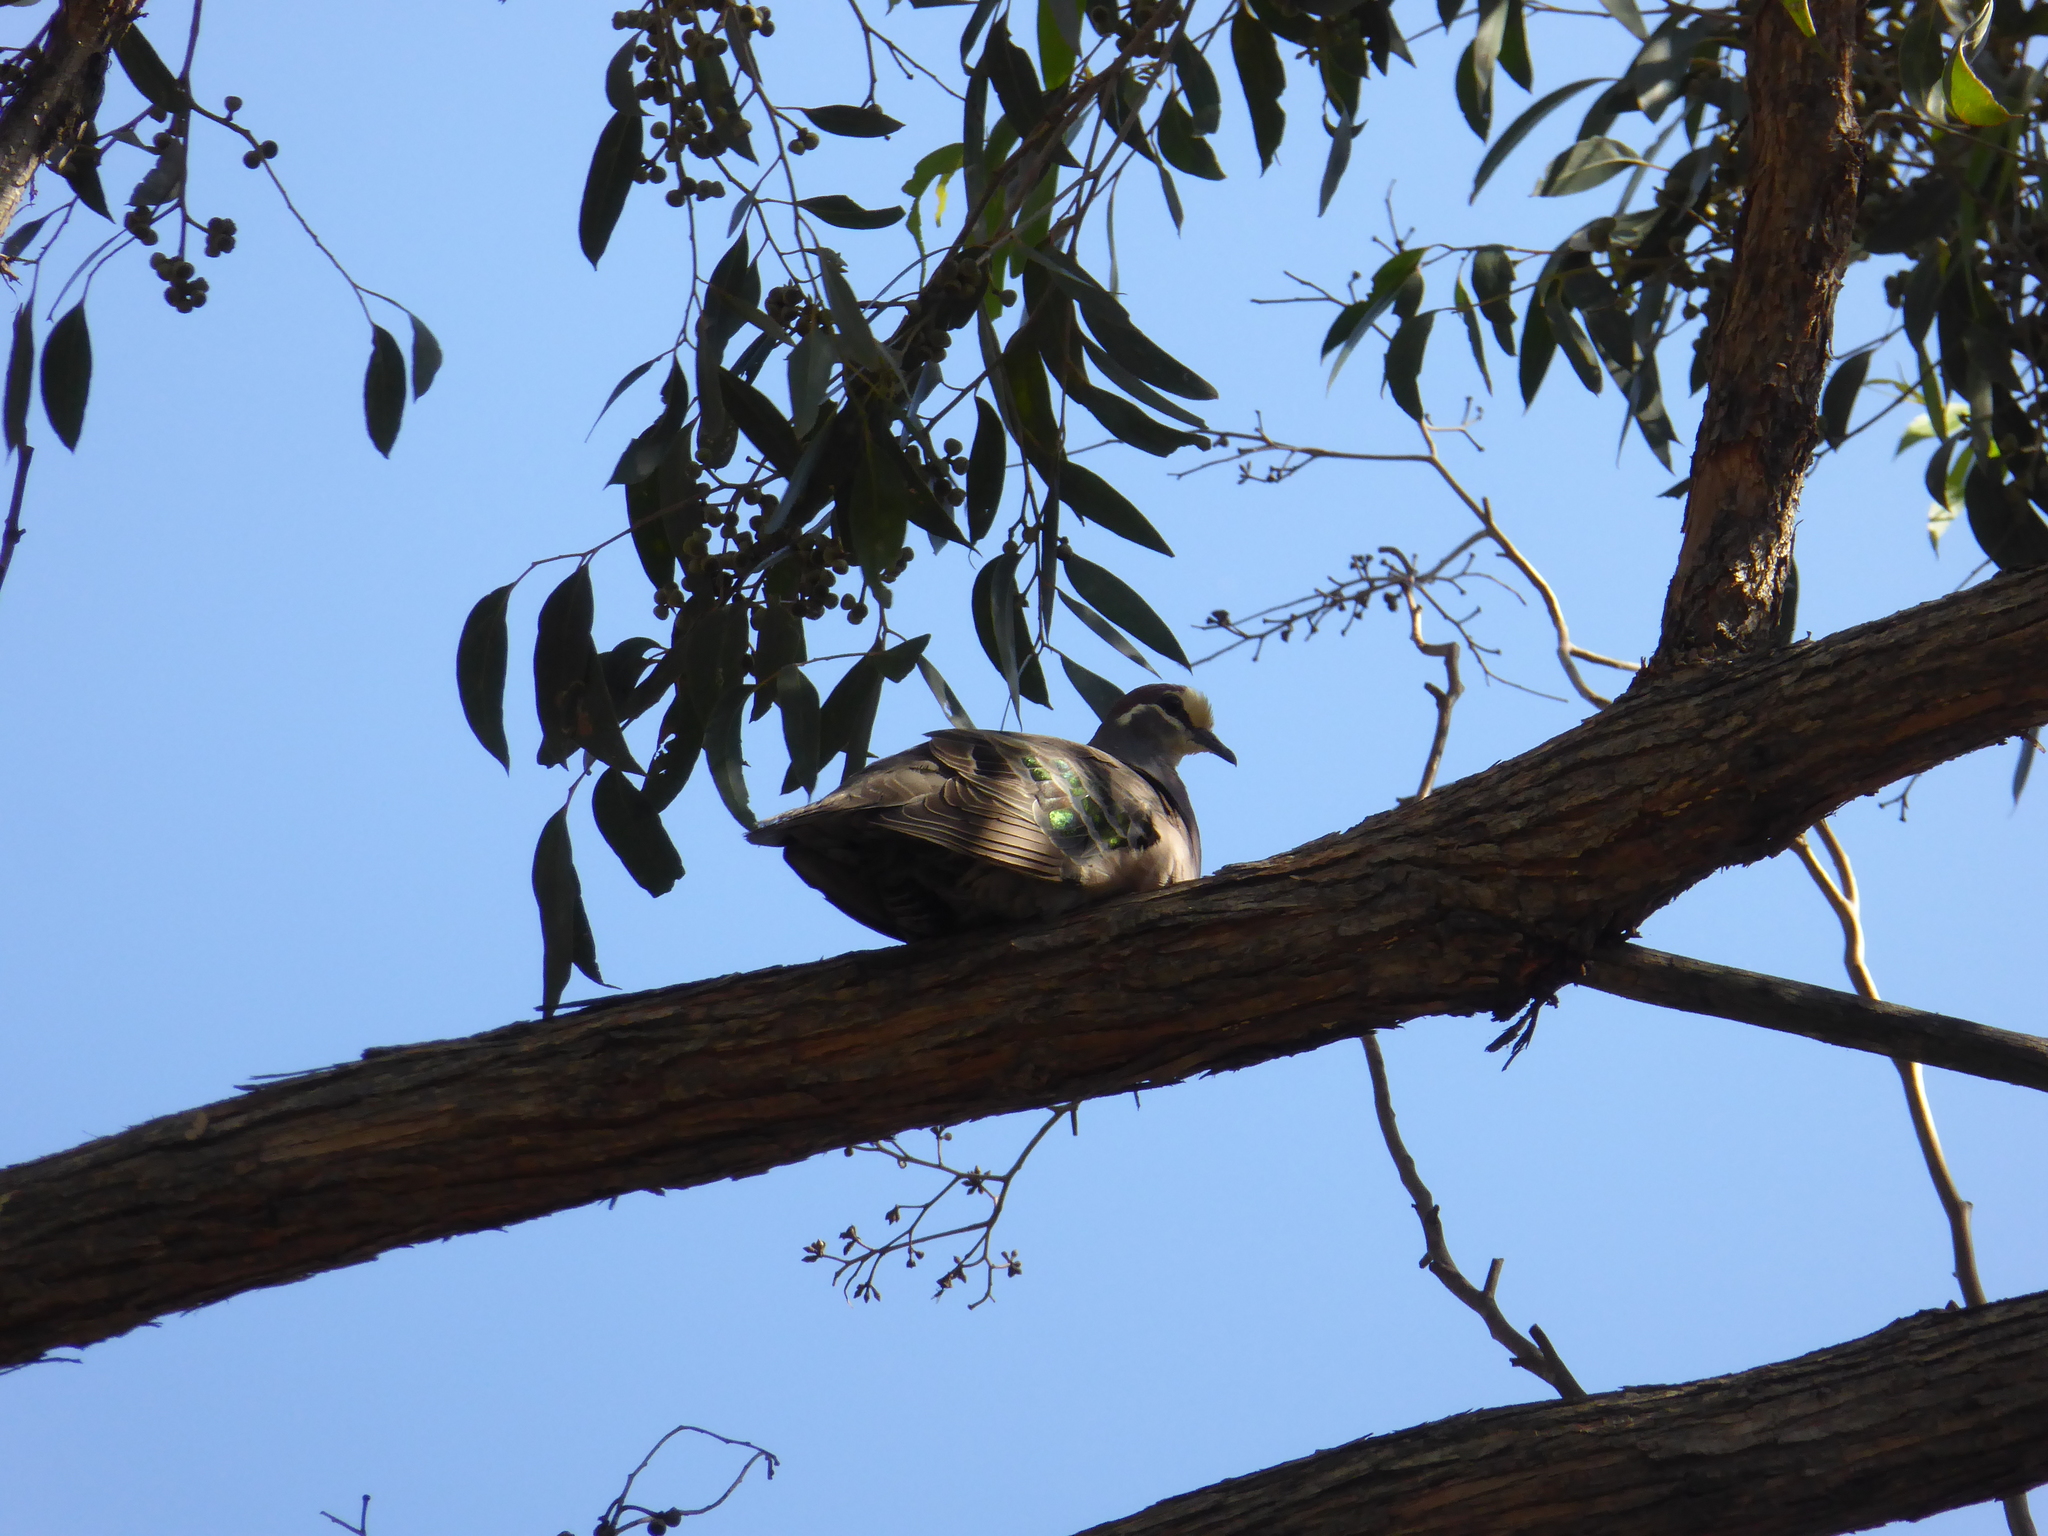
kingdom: Animalia
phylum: Chordata
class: Aves
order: Columbiformes
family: Columbidae
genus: Phaps
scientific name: Phaps chalcoptera
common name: Common bronzewing
